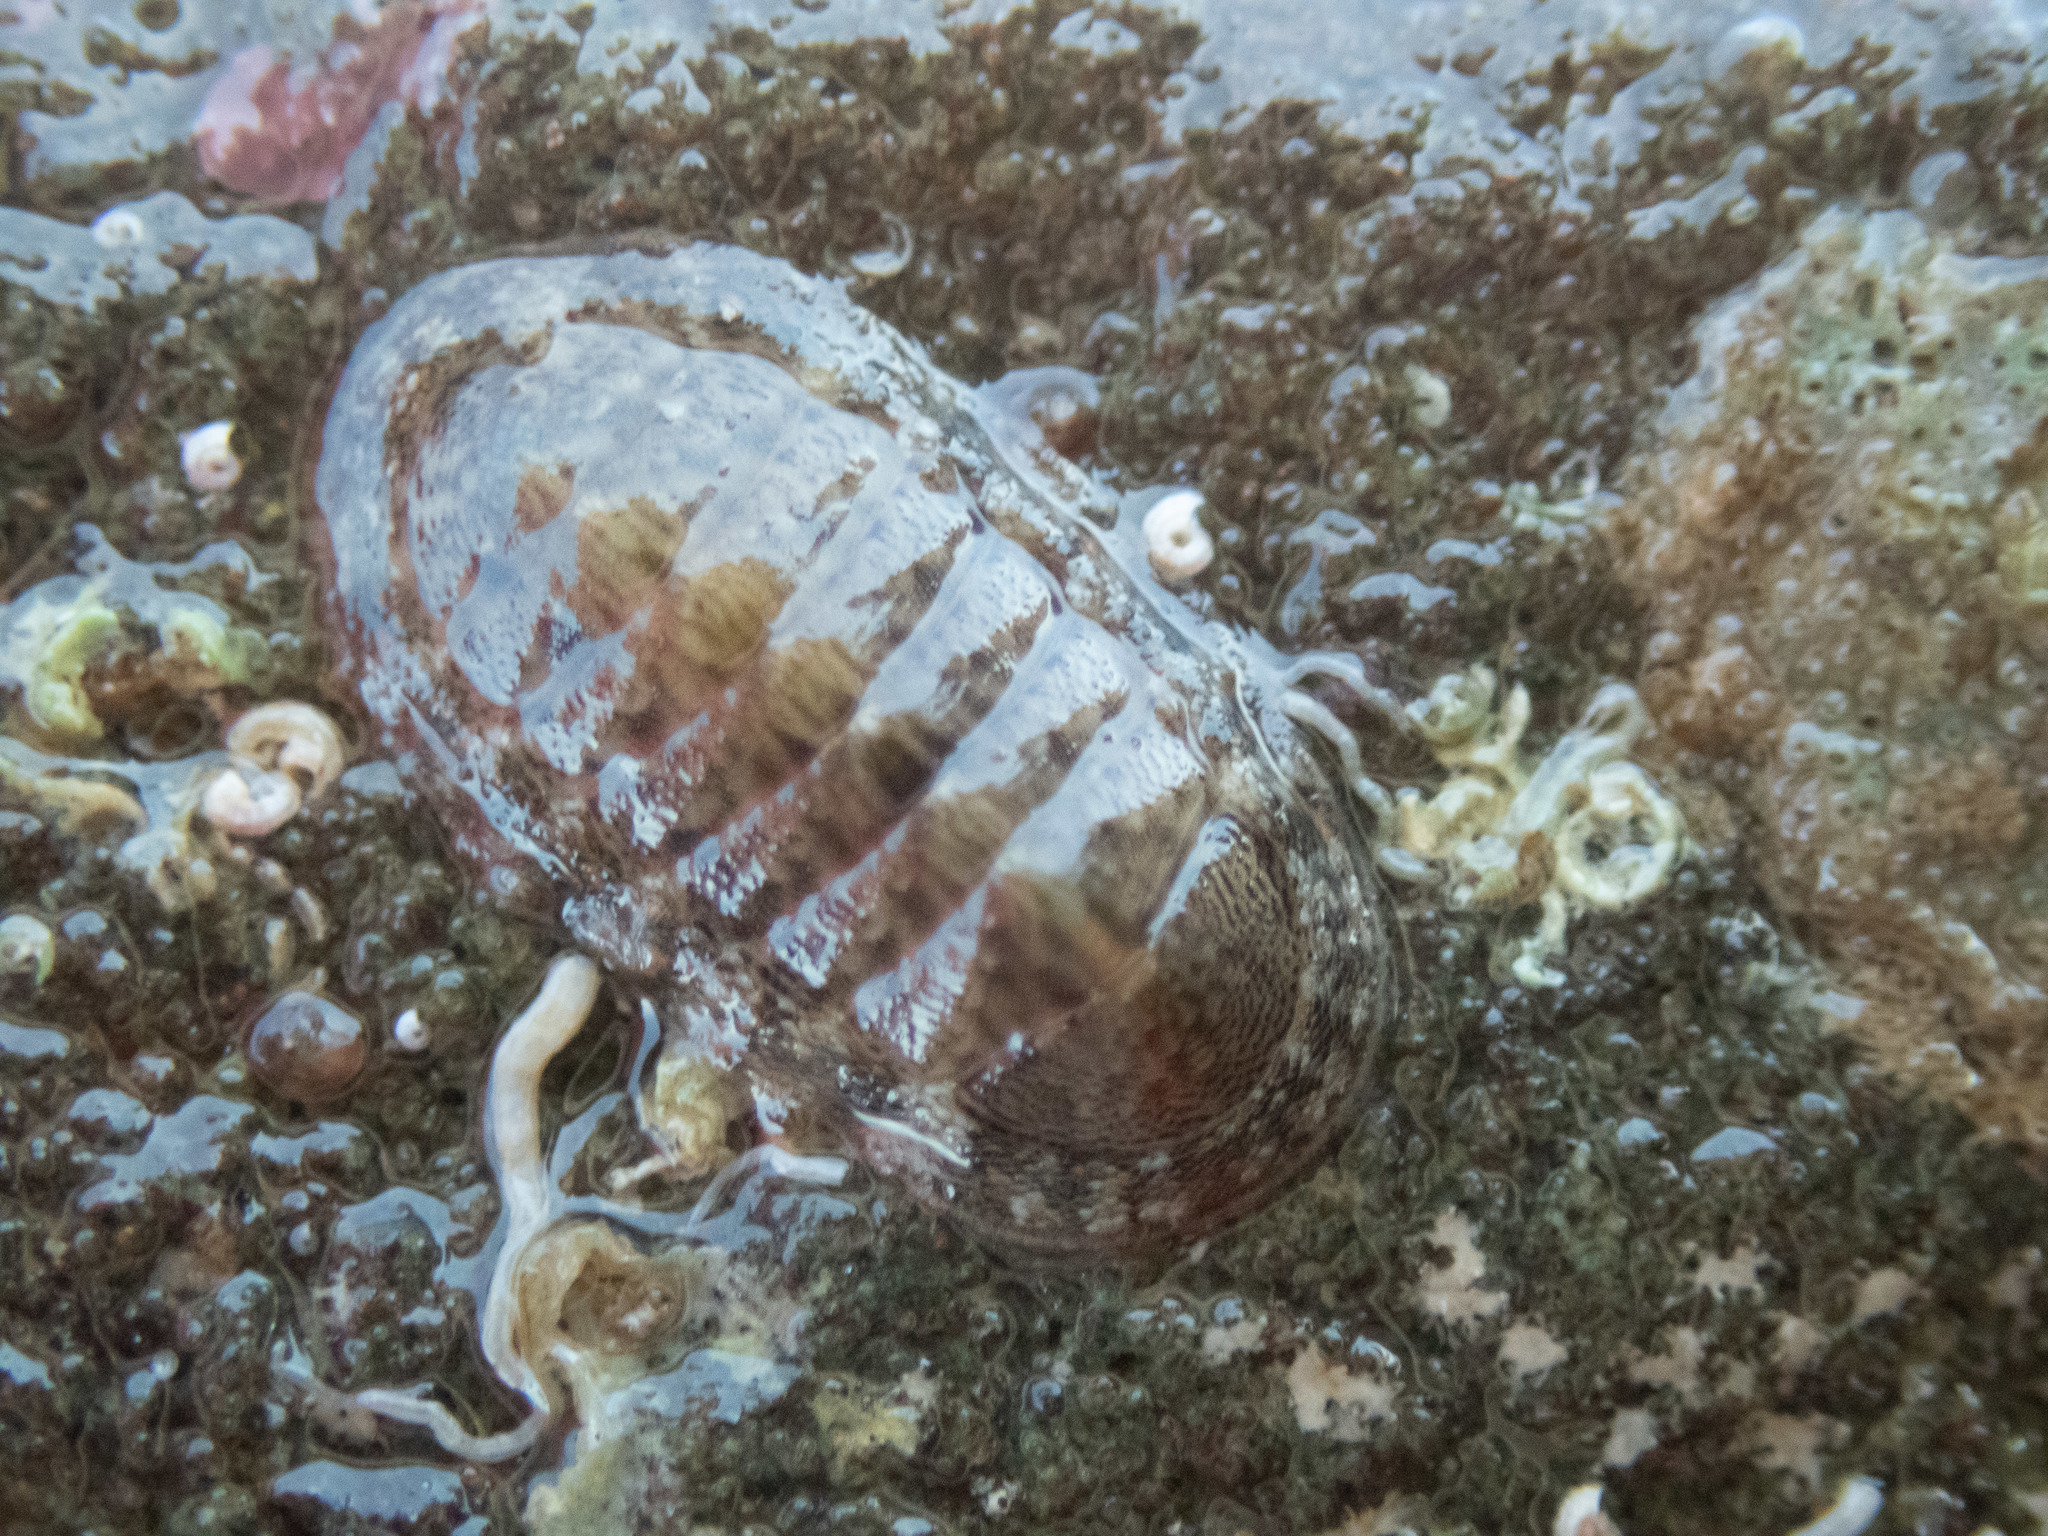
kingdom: Animalia
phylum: Mollusca
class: Polyplacophora
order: Chitonida
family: Ischnochitonidae
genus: Ischnochiton
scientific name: Ischnochiton dispar
